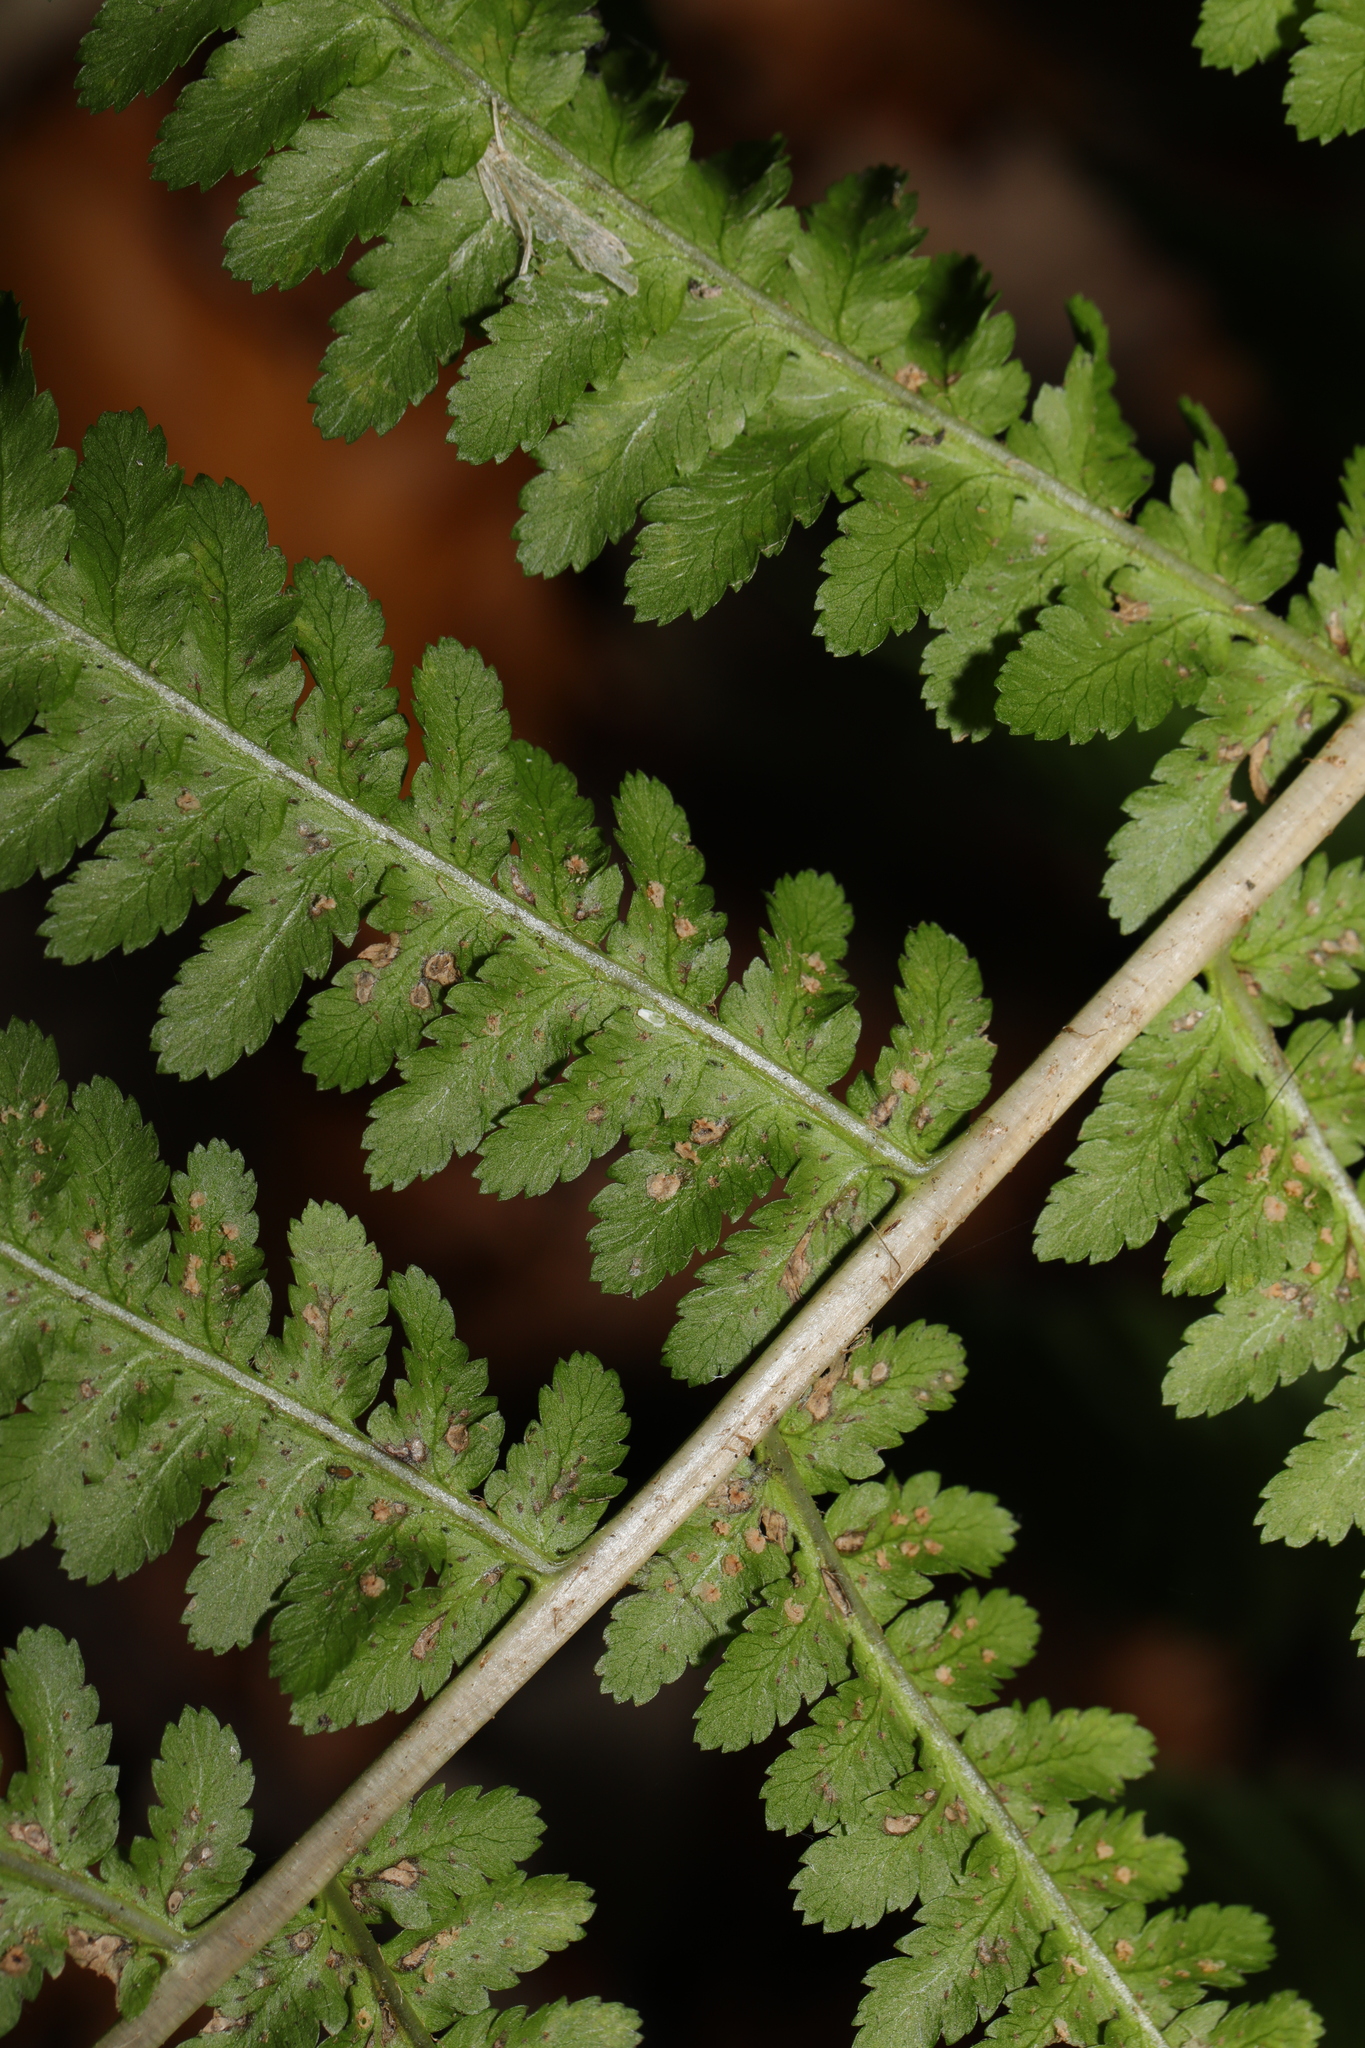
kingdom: Plantae
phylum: Tracheophyta
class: Polypodiopsida
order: Polypodiales
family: Dryopteridaceae
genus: Dryopteris
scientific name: Dryopteris filix-mas
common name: Male fern
